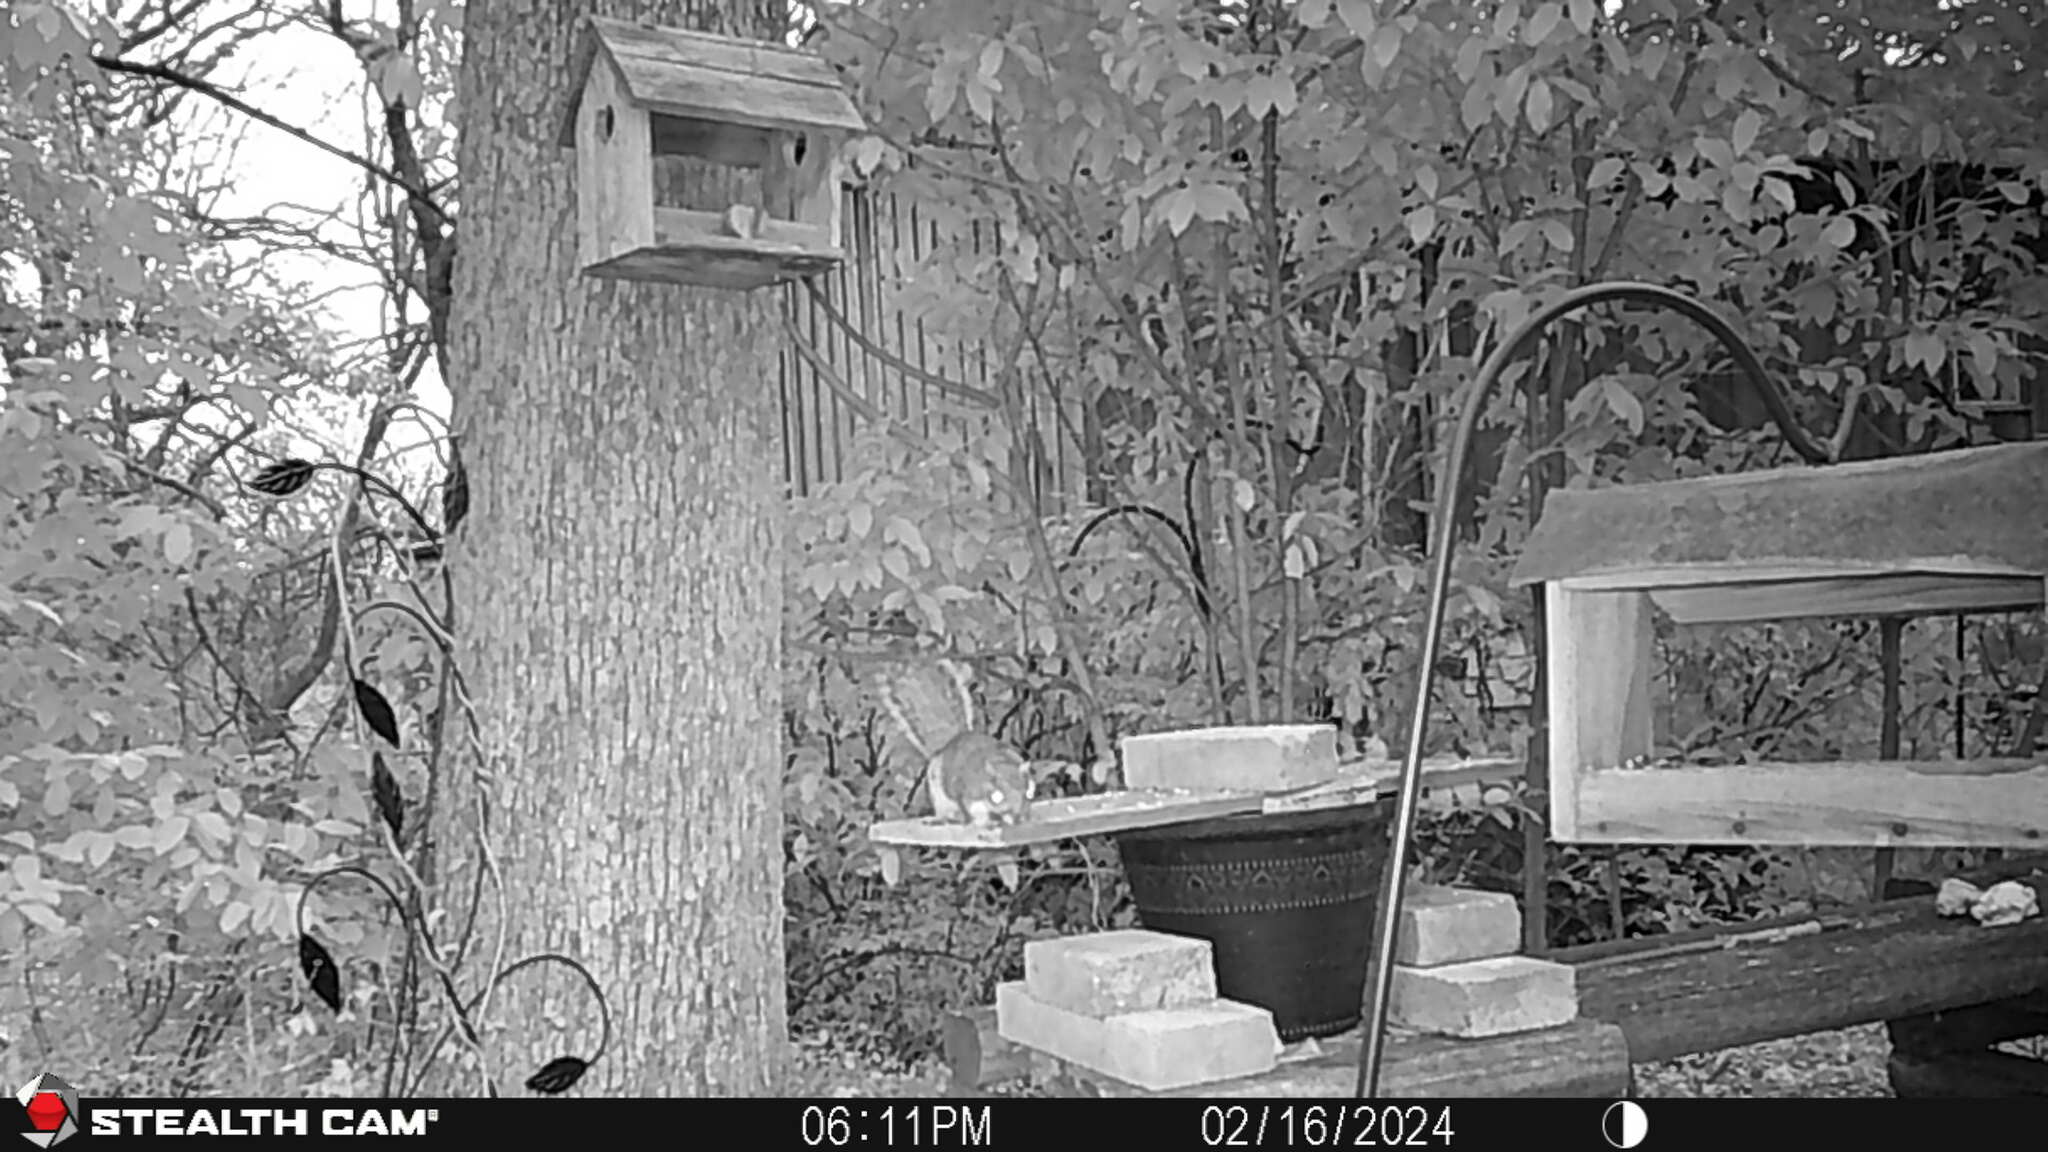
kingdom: Animalia
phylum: Chordata
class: Mammalia
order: Rodentia
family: Sciuridae
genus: Sciurus
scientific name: Sciurus niger
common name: Fox squirrel
